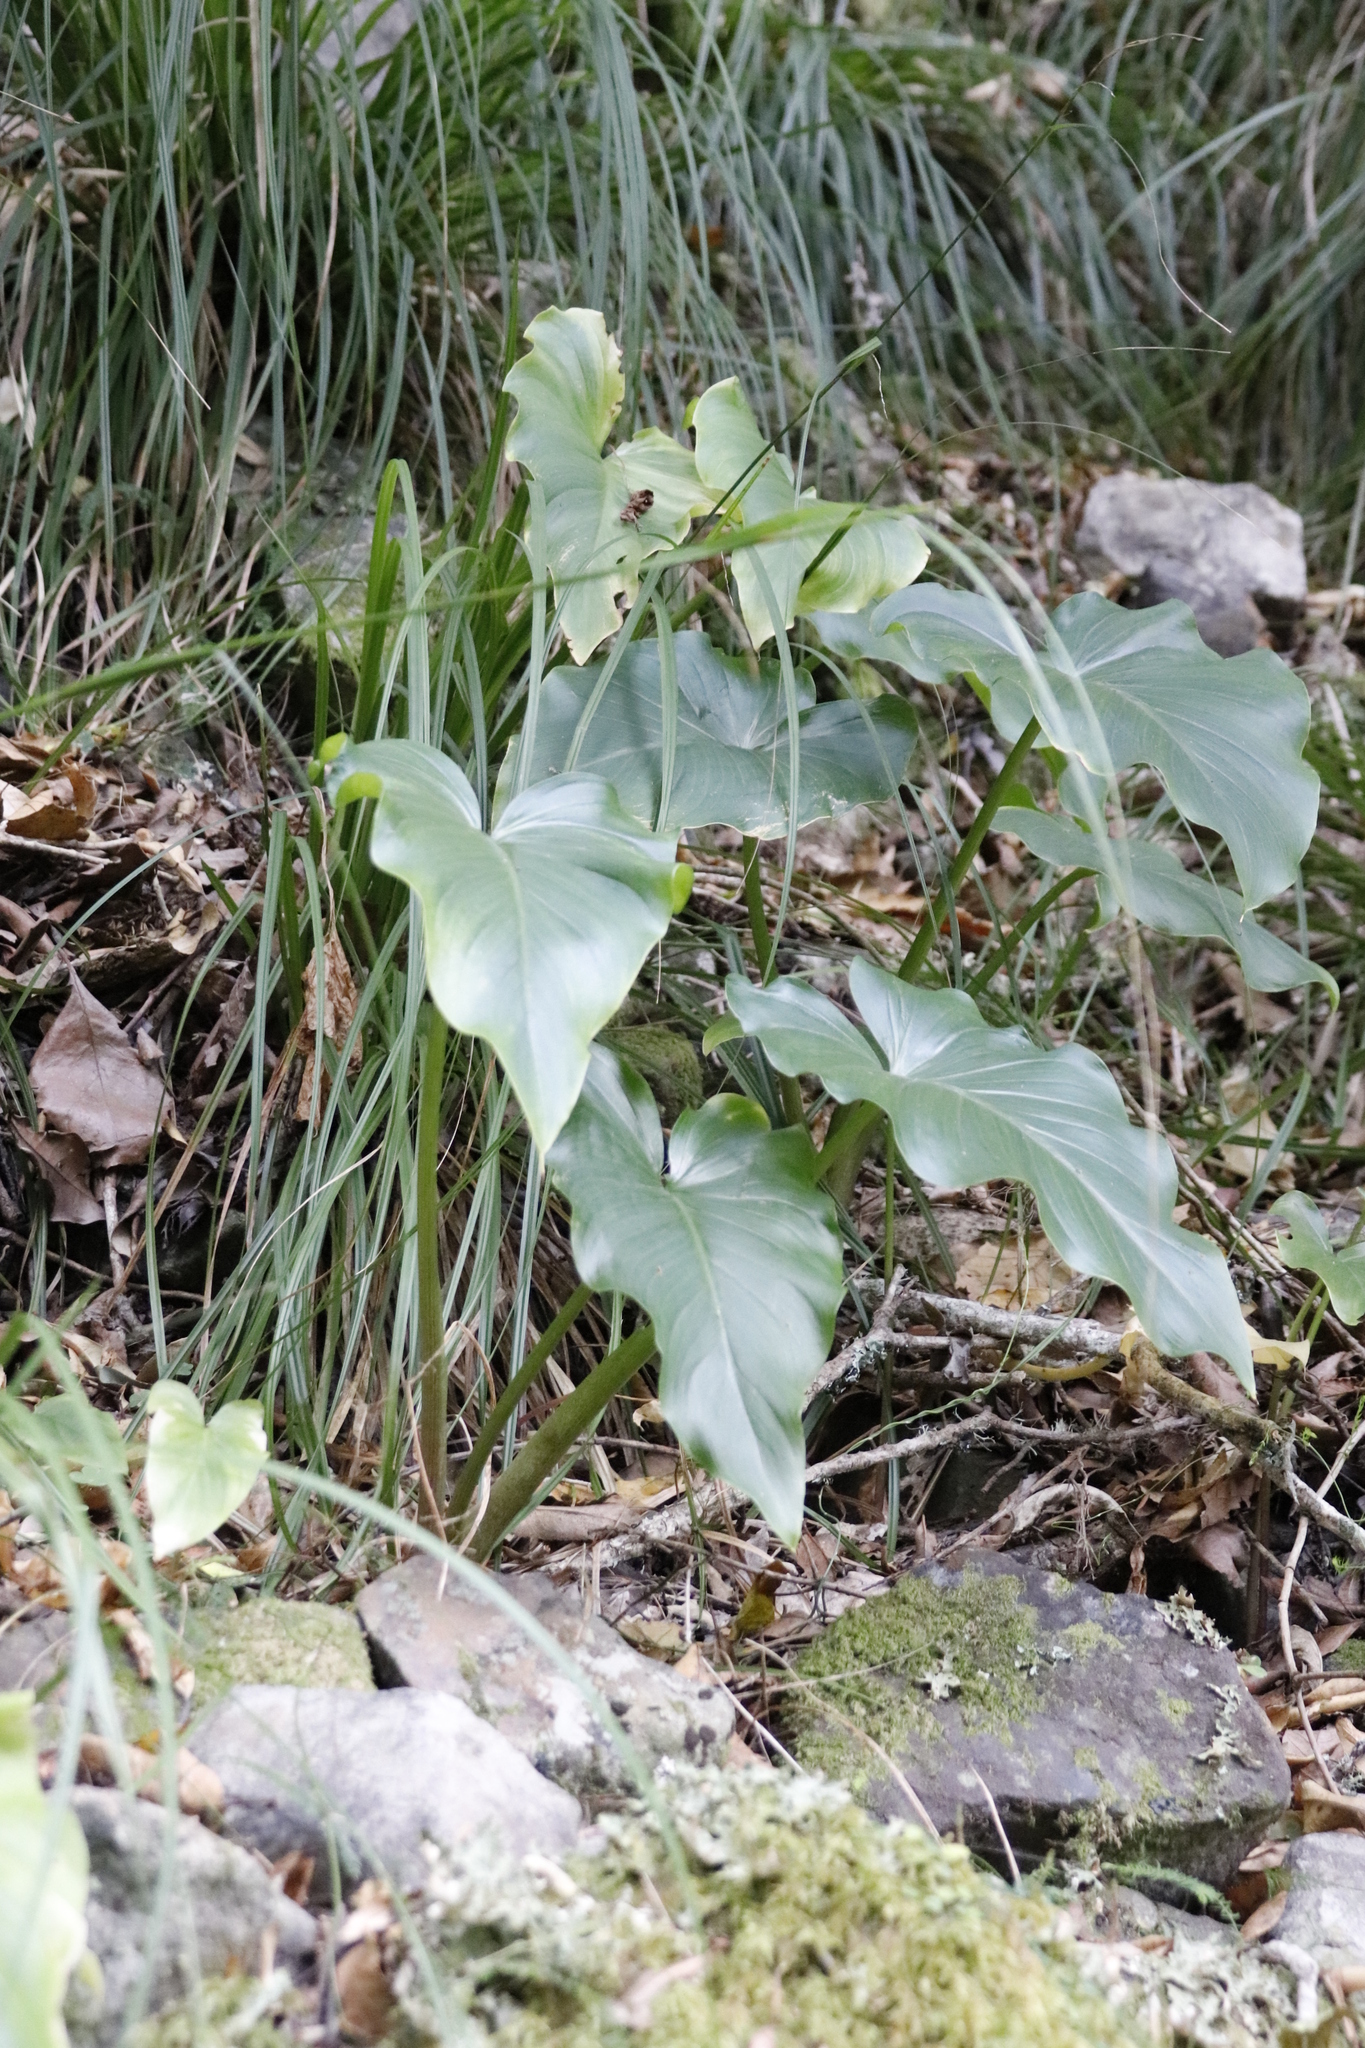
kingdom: Plantae
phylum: Tracheophyta
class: Liliopsida
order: Alismatales
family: Araceae
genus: Zantedeschia
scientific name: Zantedeschia aethiopica
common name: Altar-lily
